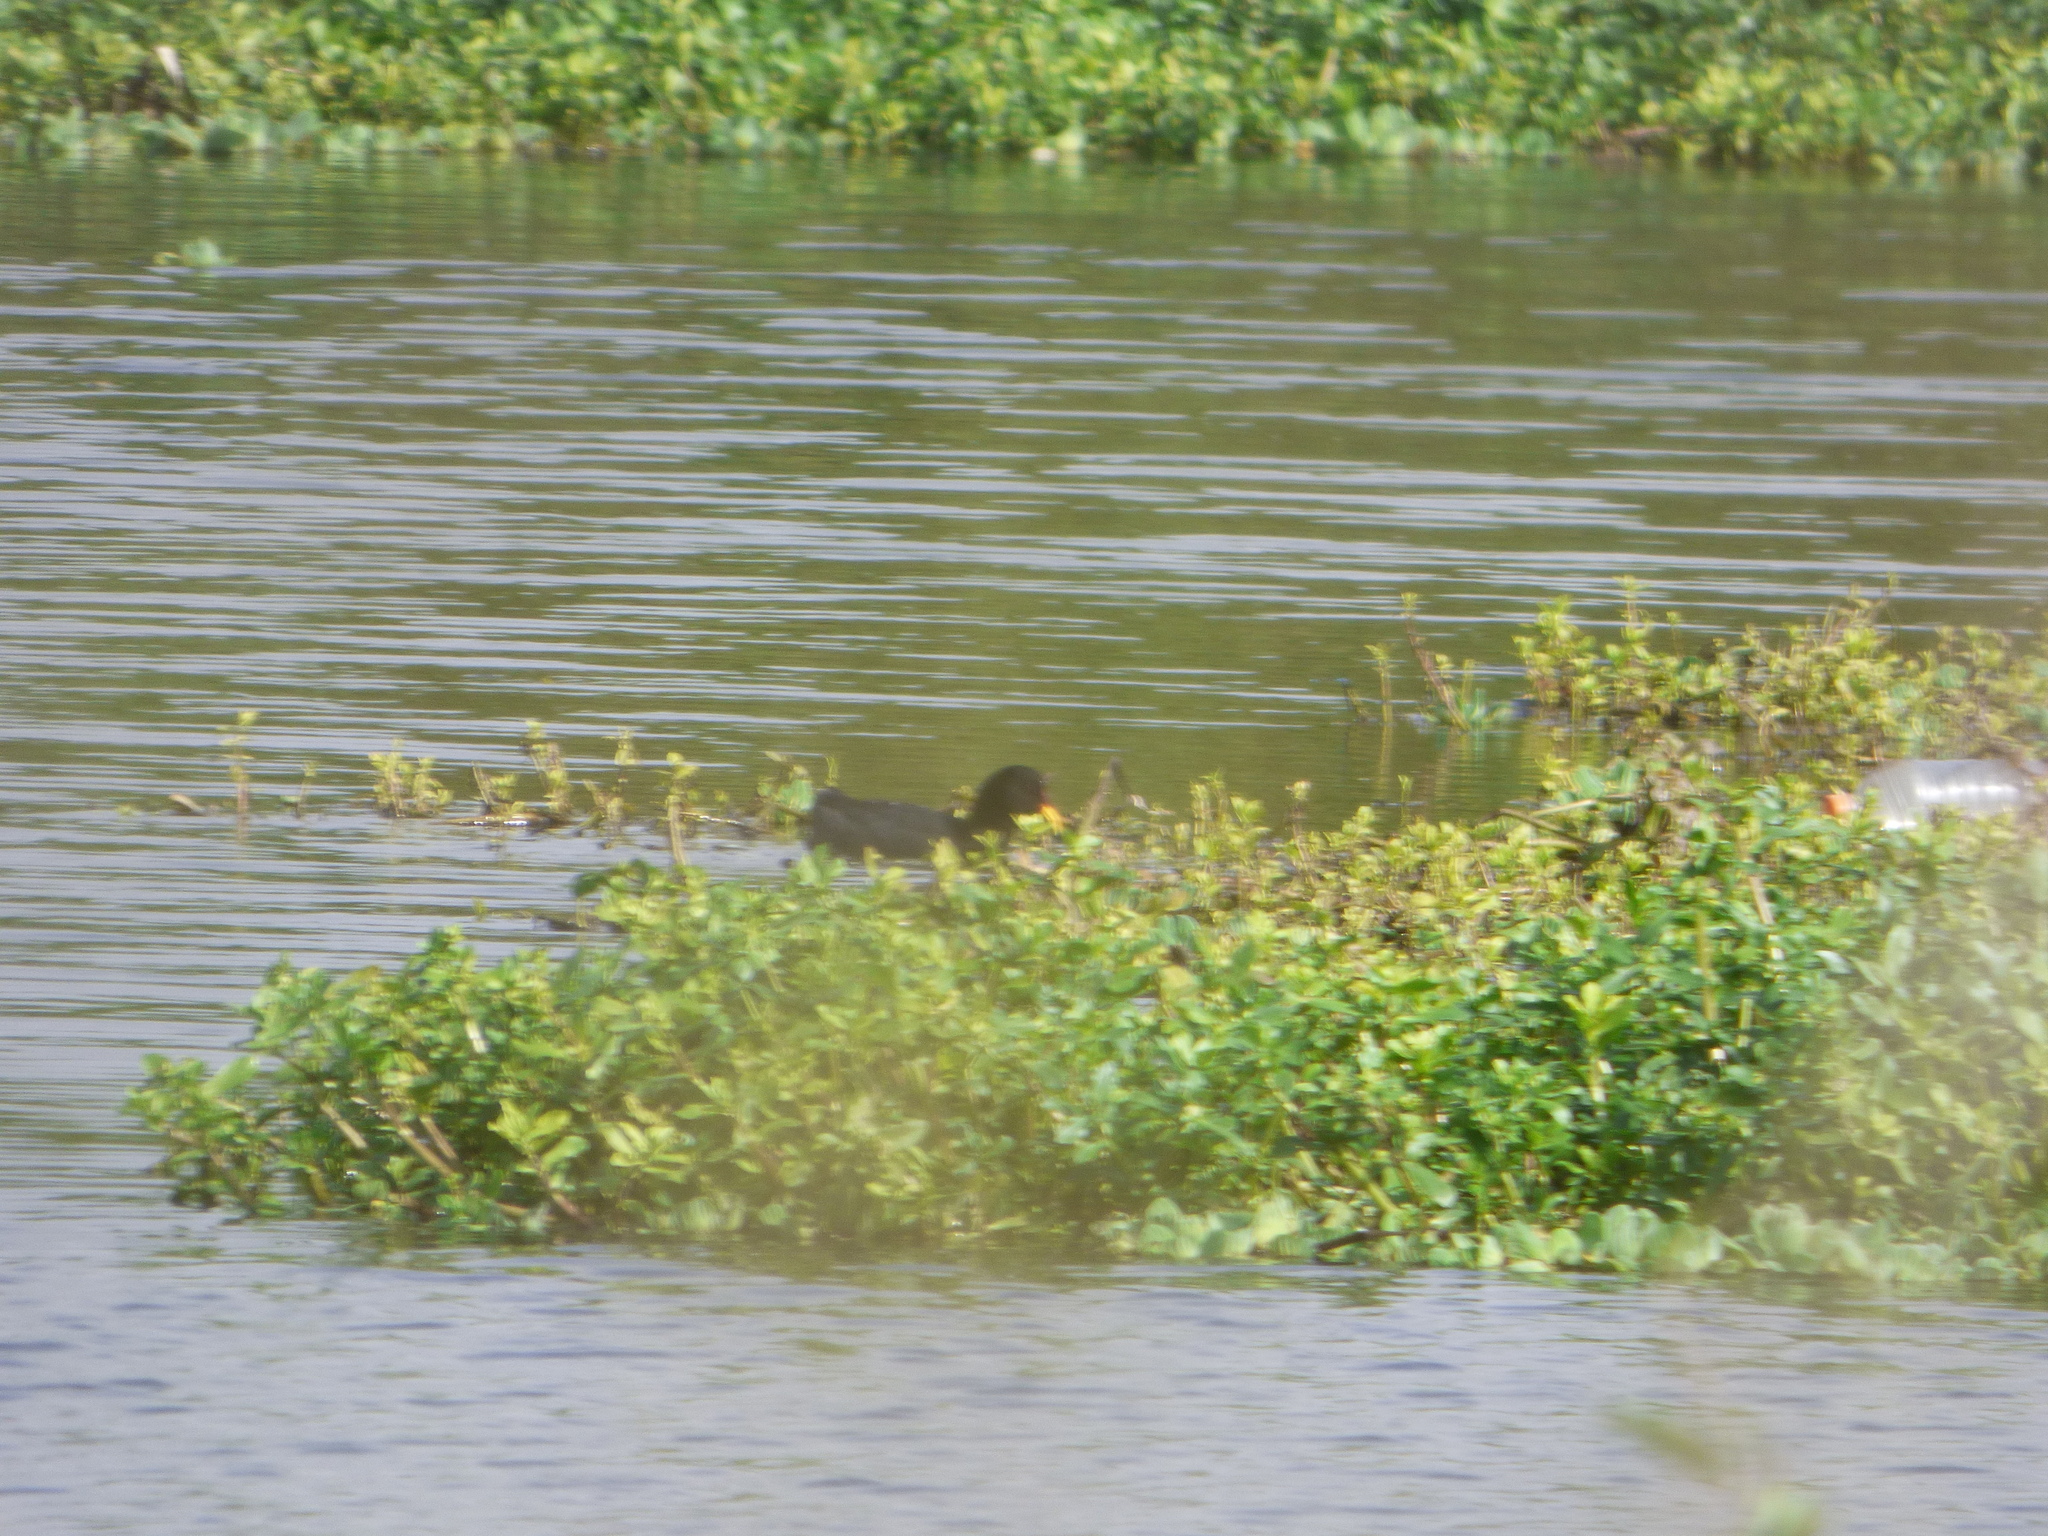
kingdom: Animalia
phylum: Chordata
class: Aves
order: Gruiformes
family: Rallidae
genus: Fulica
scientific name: Fulica rufifrons
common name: Red-fronted coot
